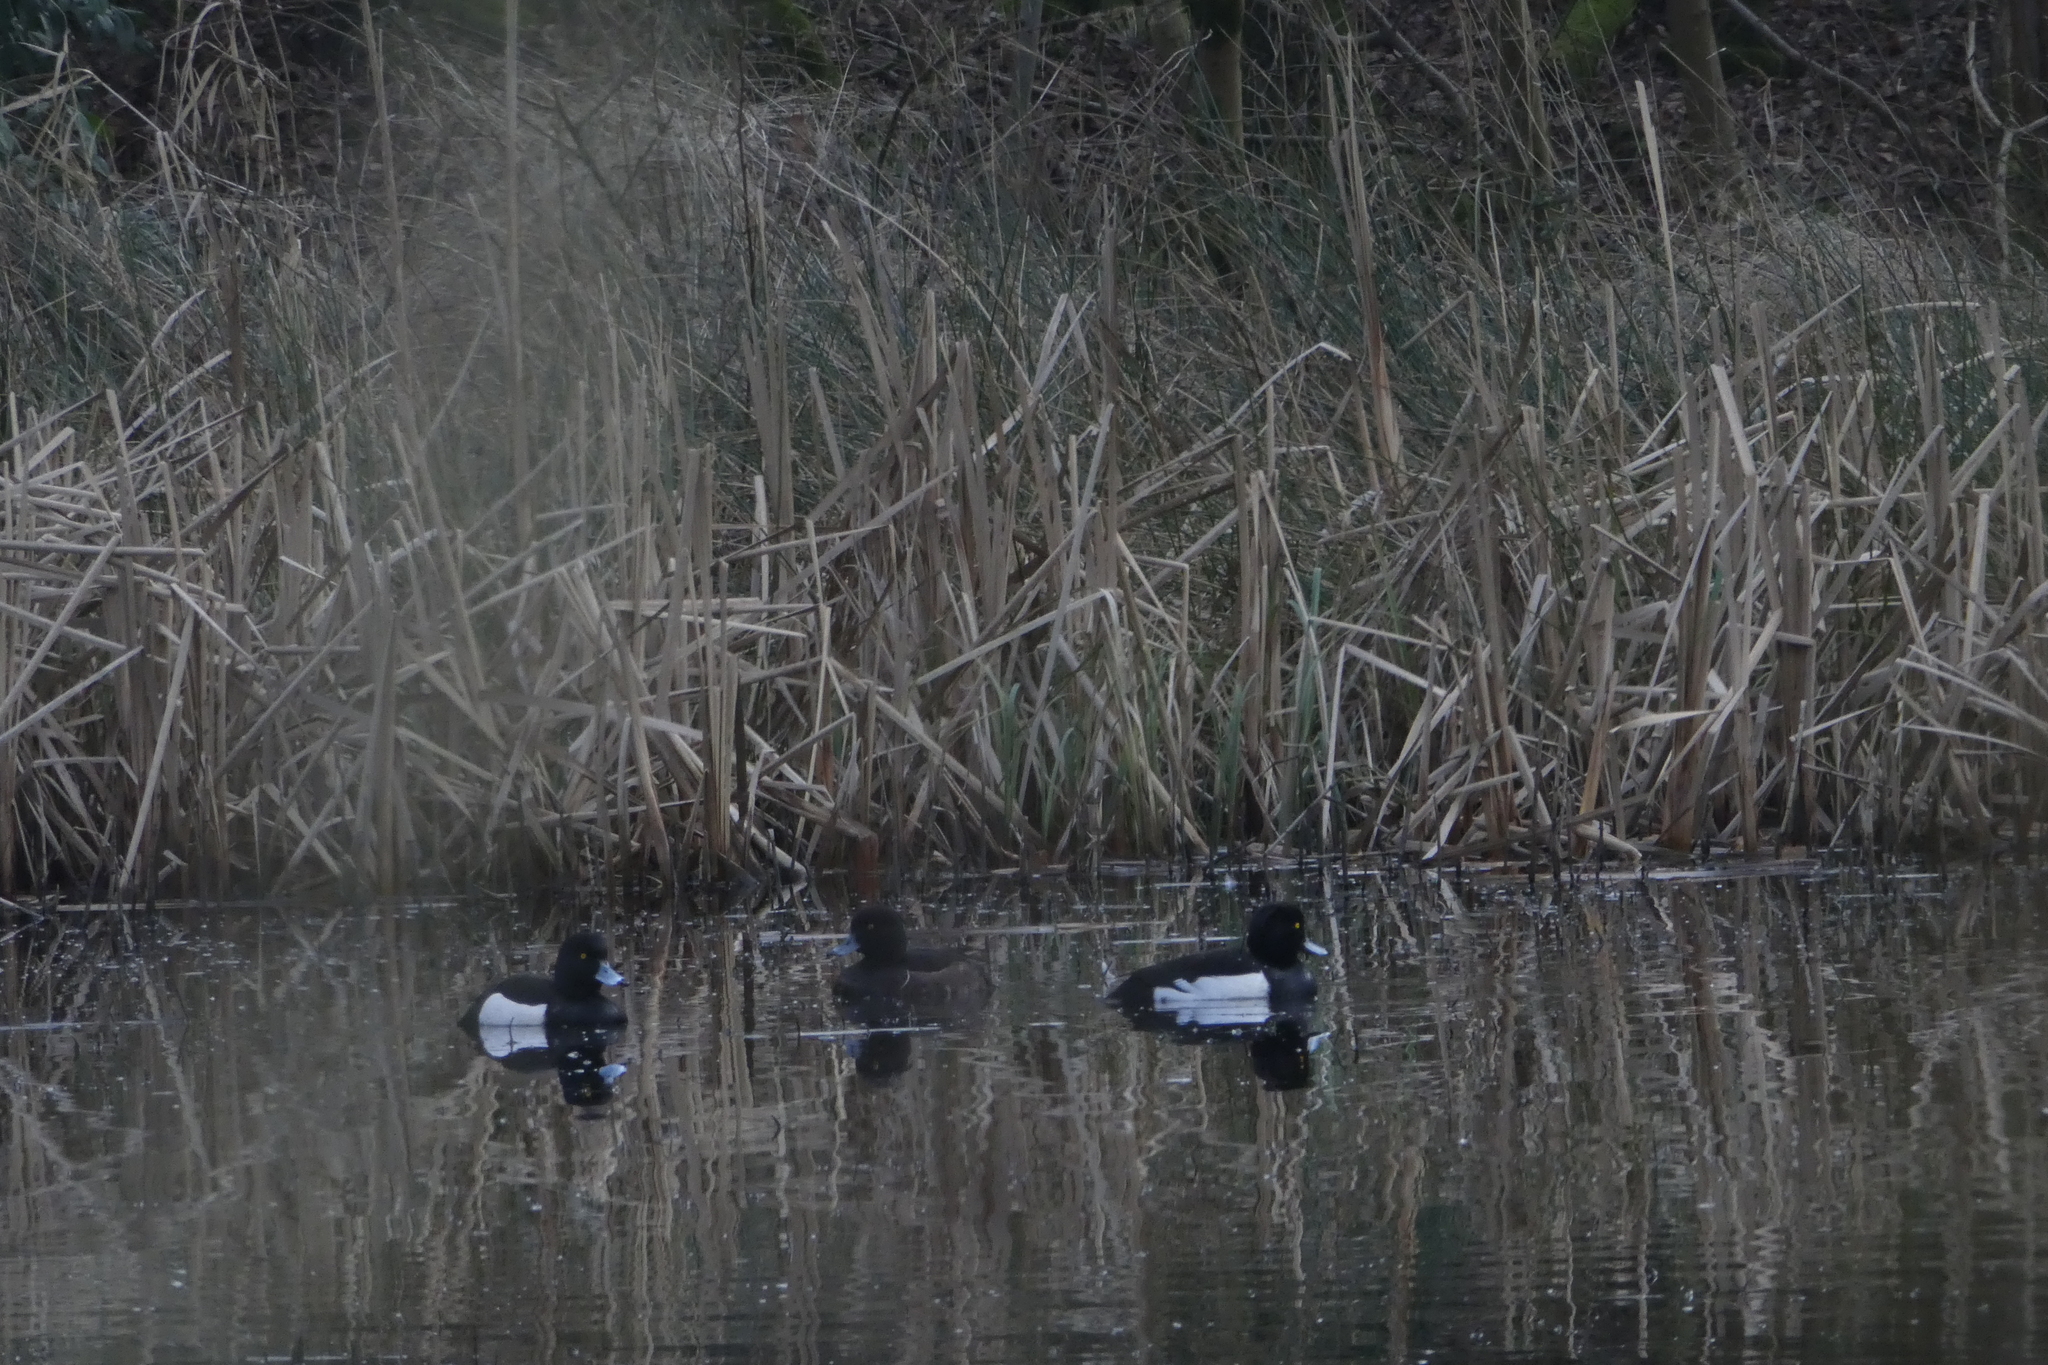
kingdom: Animalia
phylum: Chordata
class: Aves
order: Anseriformes
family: Anatidae
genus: Aythya
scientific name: Aythya fuligula
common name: Tufted duck
